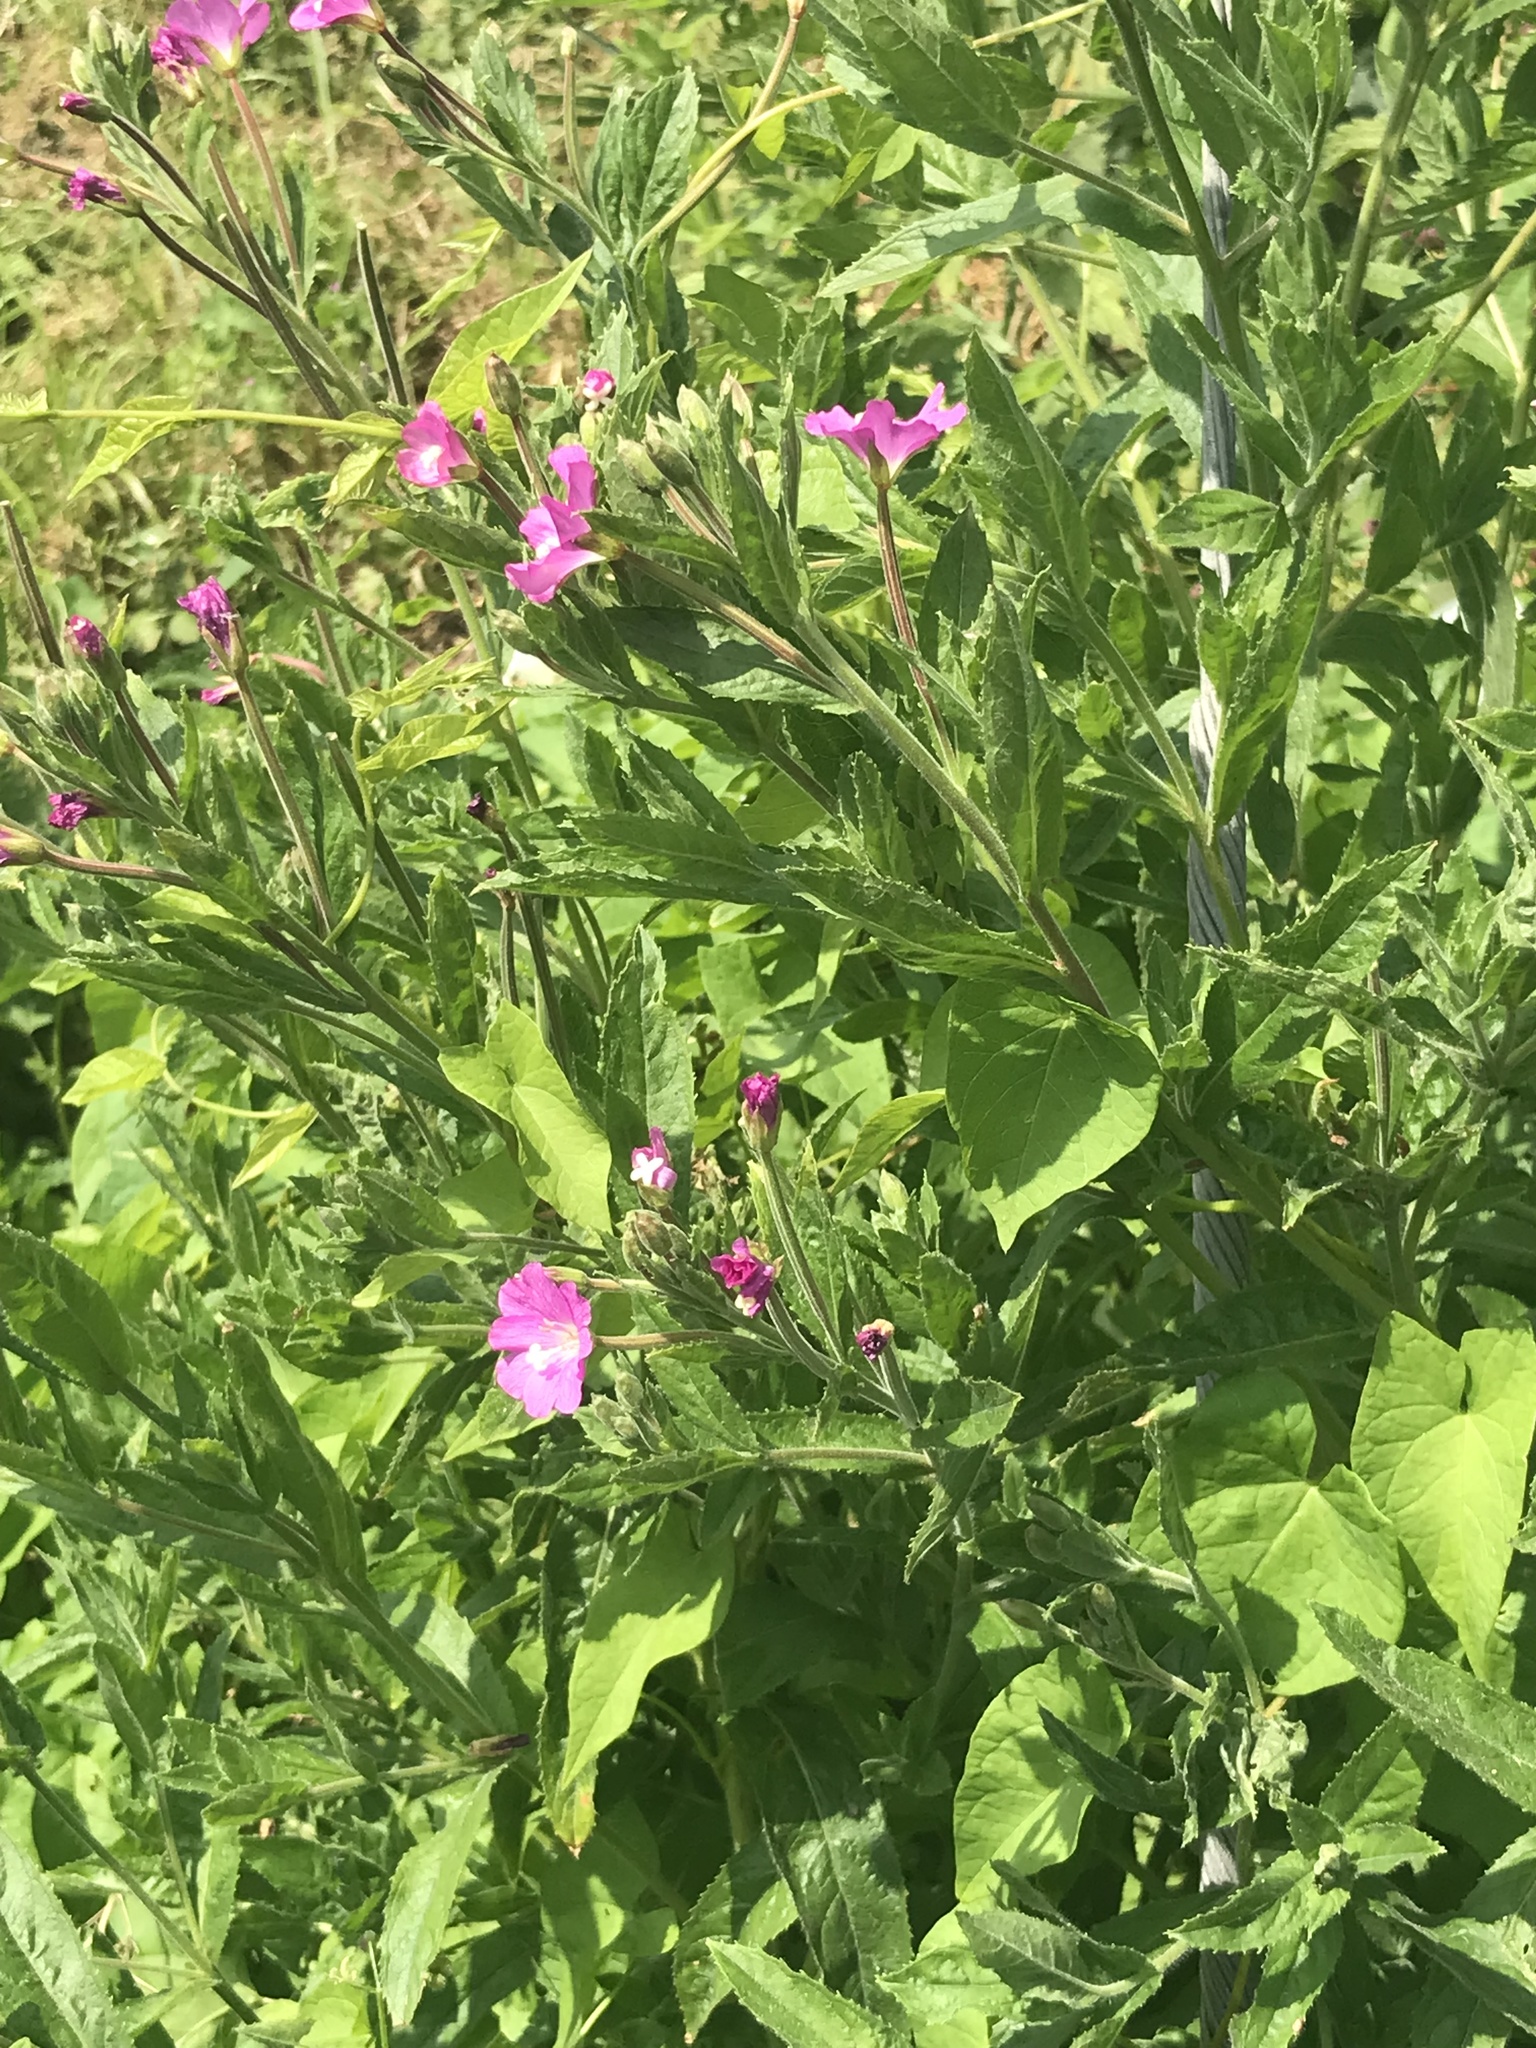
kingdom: Plantae
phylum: Tracheophyta
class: Magnoliopsida
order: Myrtales
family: Onagraceae
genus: Epilobium
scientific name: Epilobium hirsutum
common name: Great willowherb
